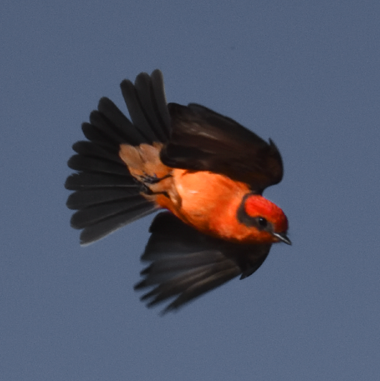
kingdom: Animalia
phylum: Chordata
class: Aves
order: Passeriformes
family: Tyrannidae
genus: Pyrocephalus
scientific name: Pyrocephalus rubinus
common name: Vermilion flycatcher
